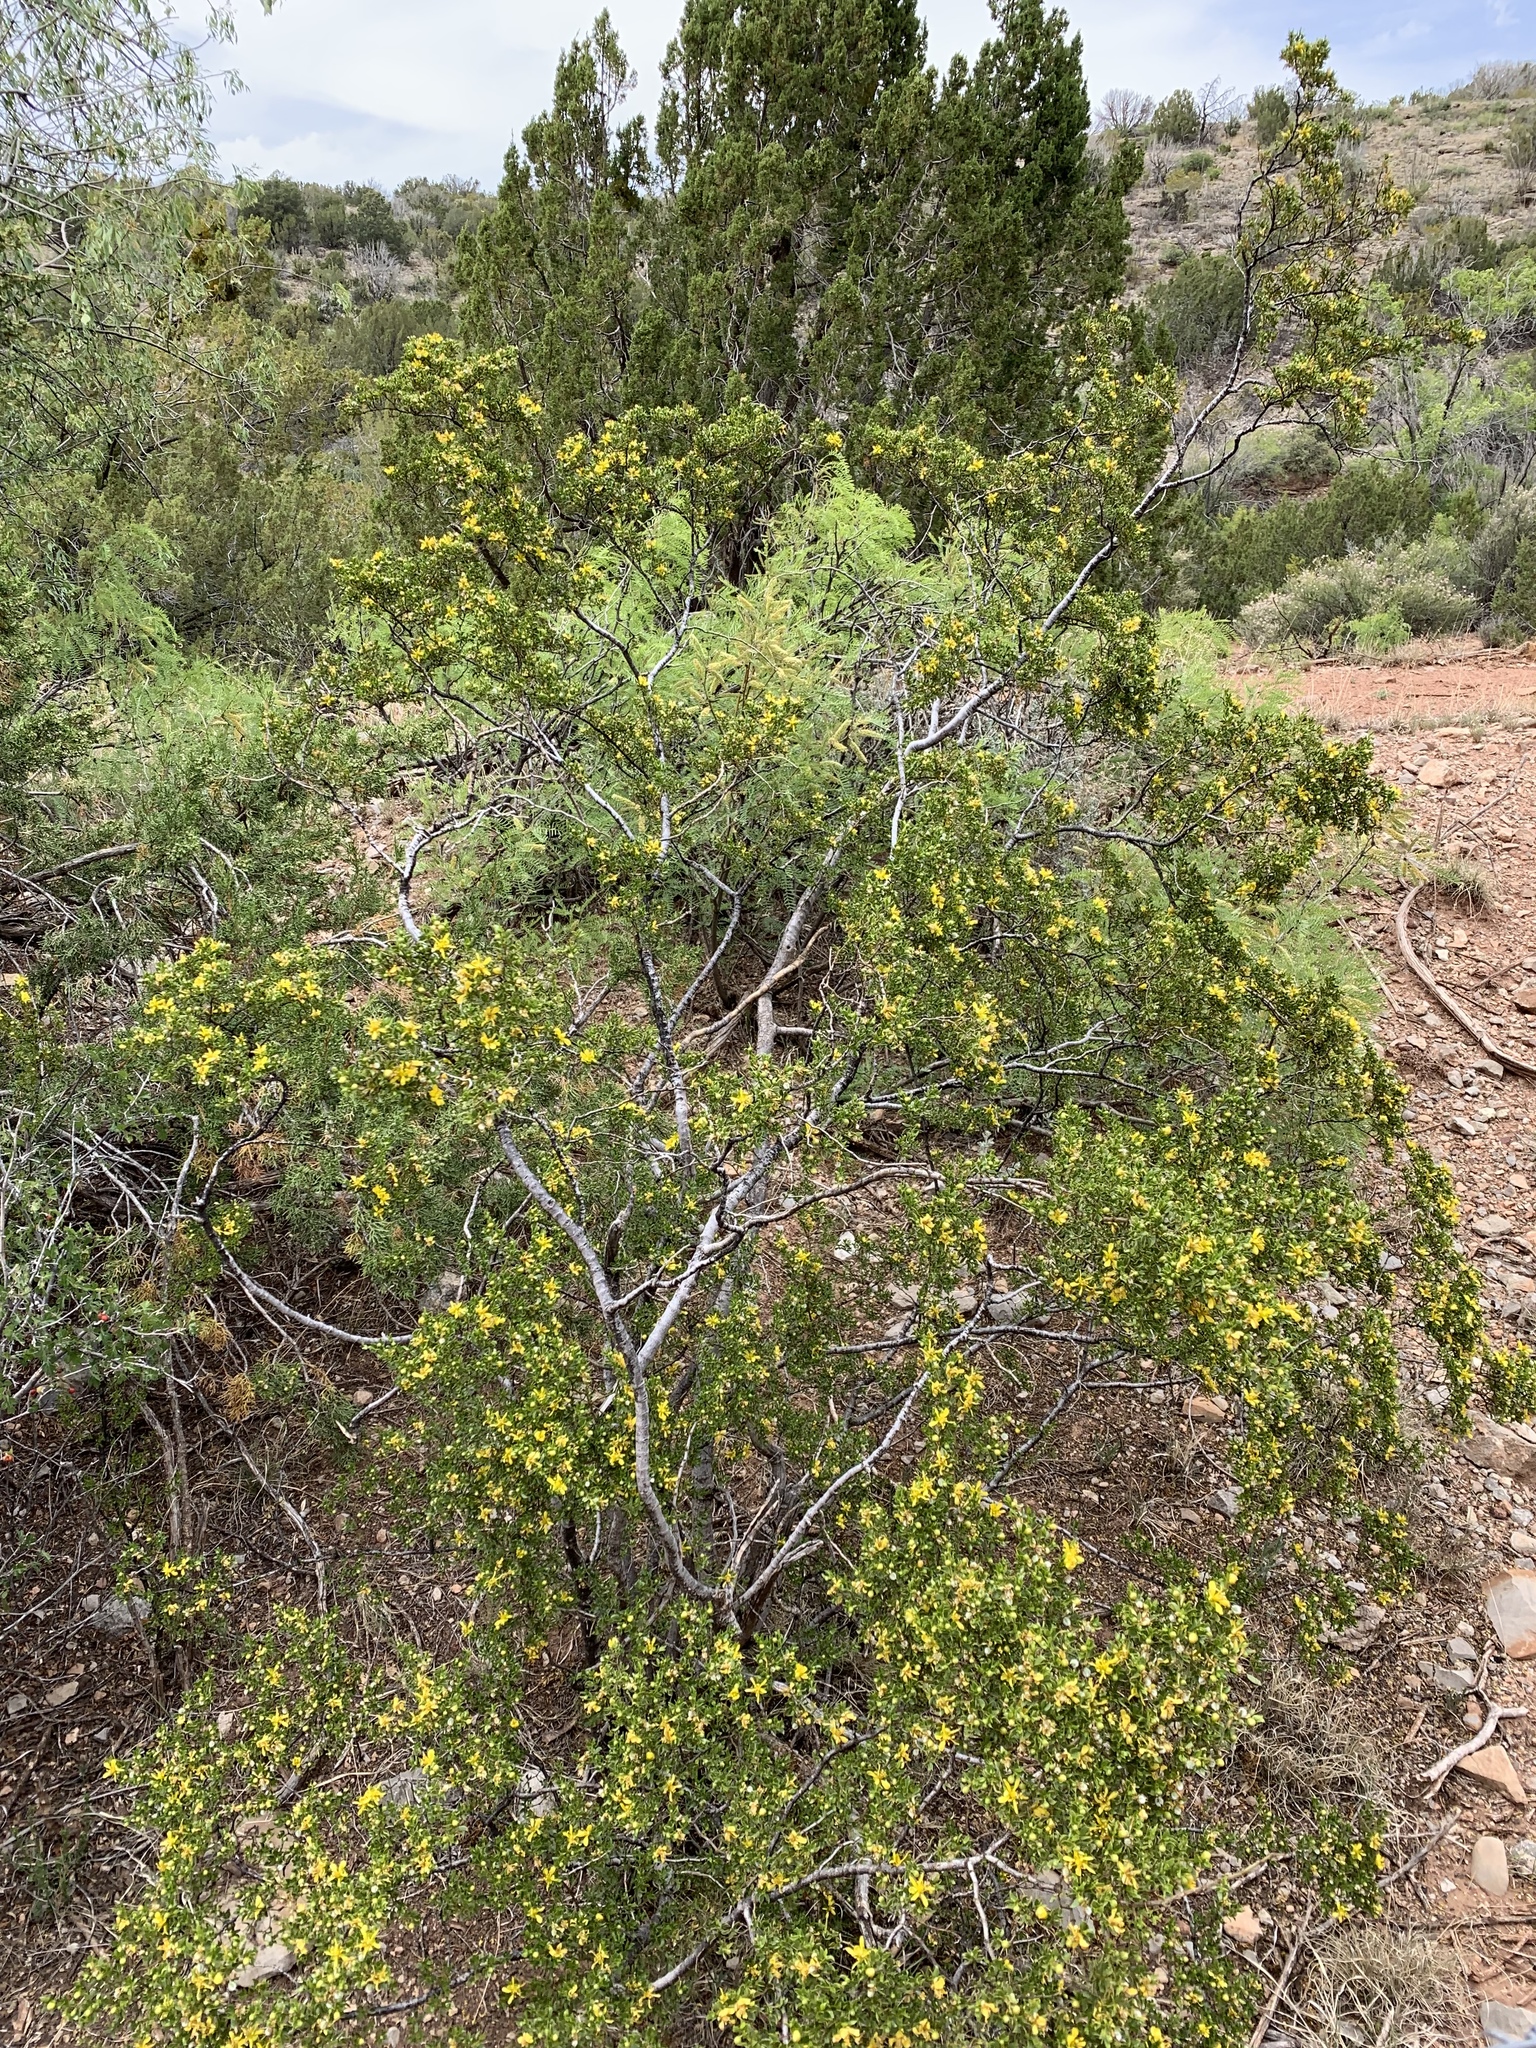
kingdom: Plantae
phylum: Tracheophyta
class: Magnoliopsida
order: Zygophyllales
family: Zygophyllaceae
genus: Larrea
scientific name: Larrea tridentata
